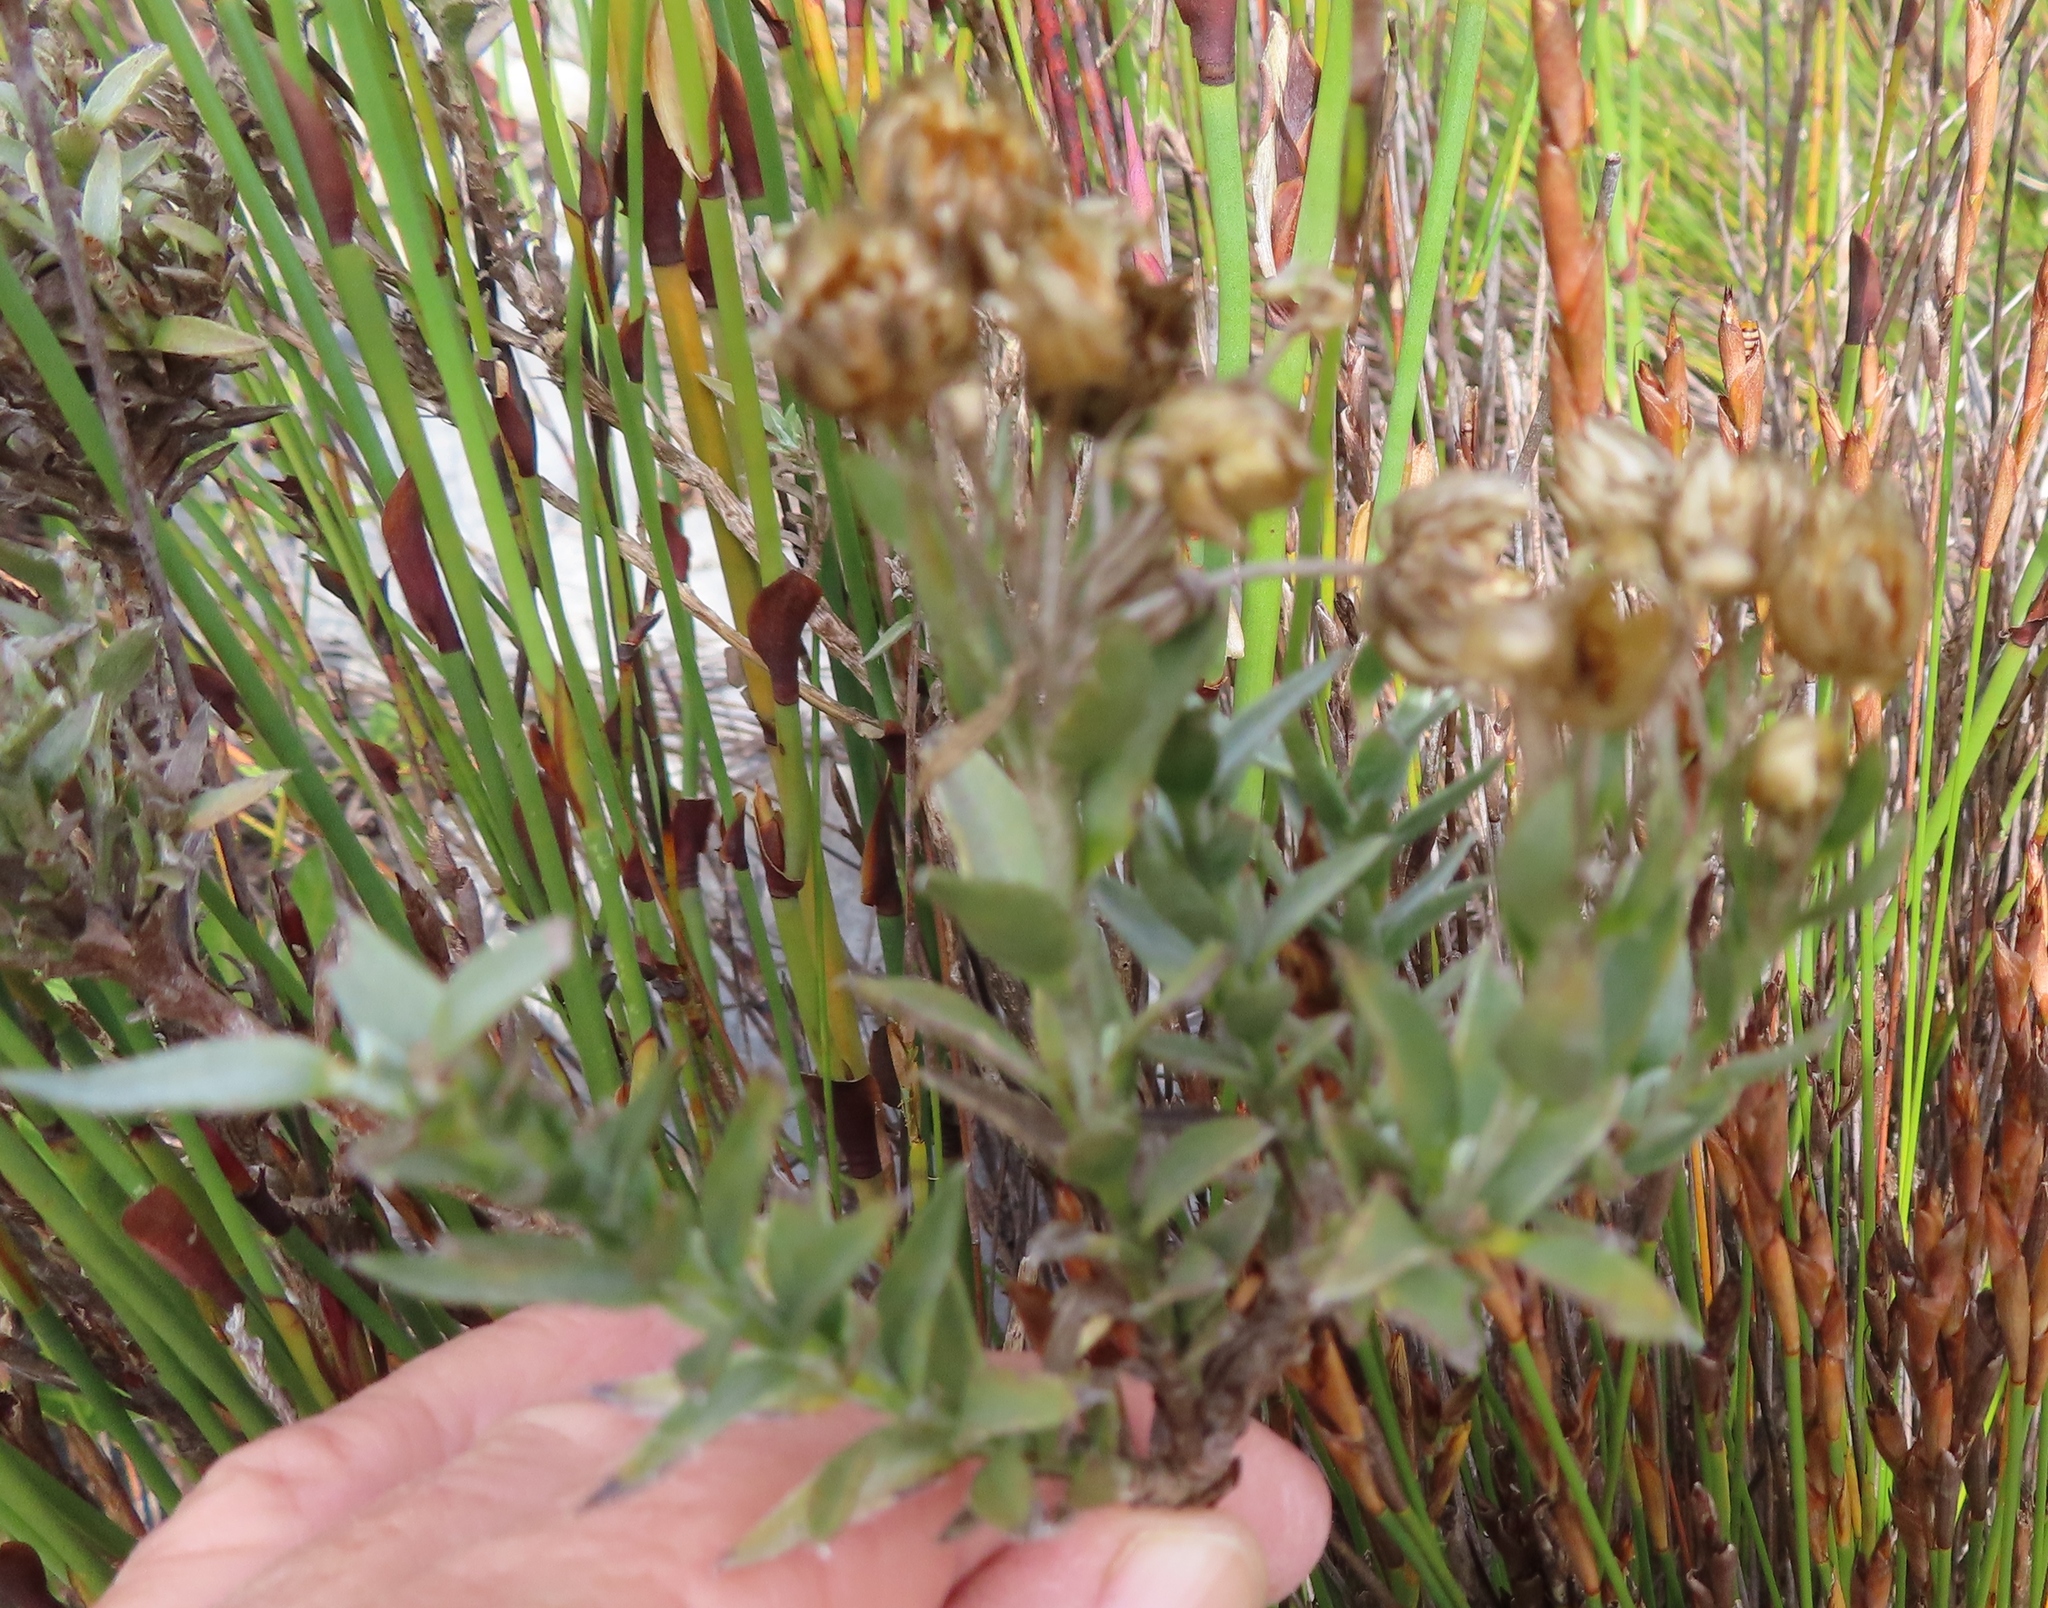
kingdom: Plantae
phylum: Tracheophyta
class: Magnoliopsida
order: Asterales
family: Asteraceae
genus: Syncarpha
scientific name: Syncarpha argyropsis
